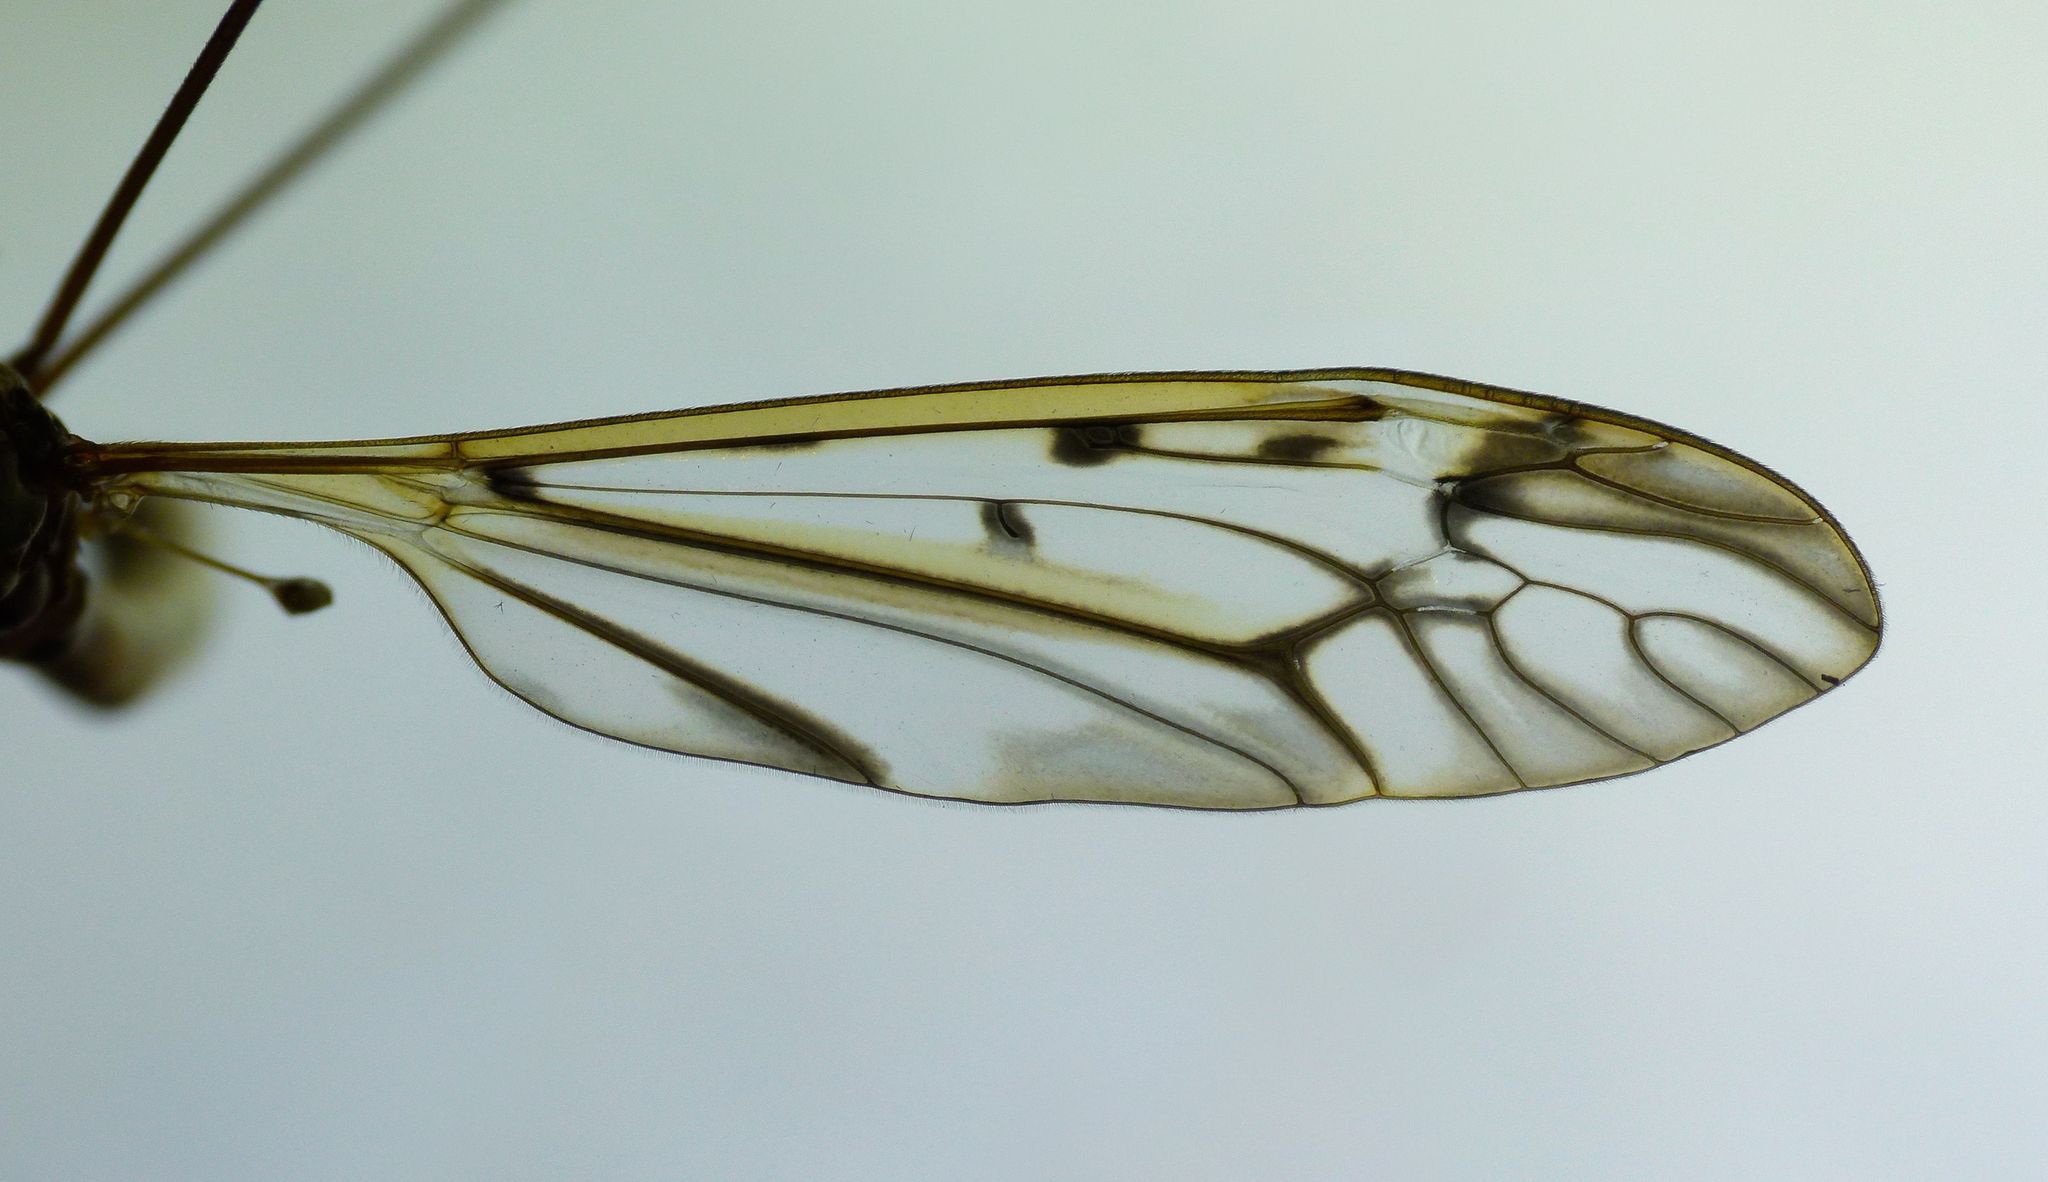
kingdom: Animalia
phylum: Arthropoda
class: Insecta
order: Diptera
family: Tipulidae
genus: Zelandotipula
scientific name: Zelandotipula novarae
